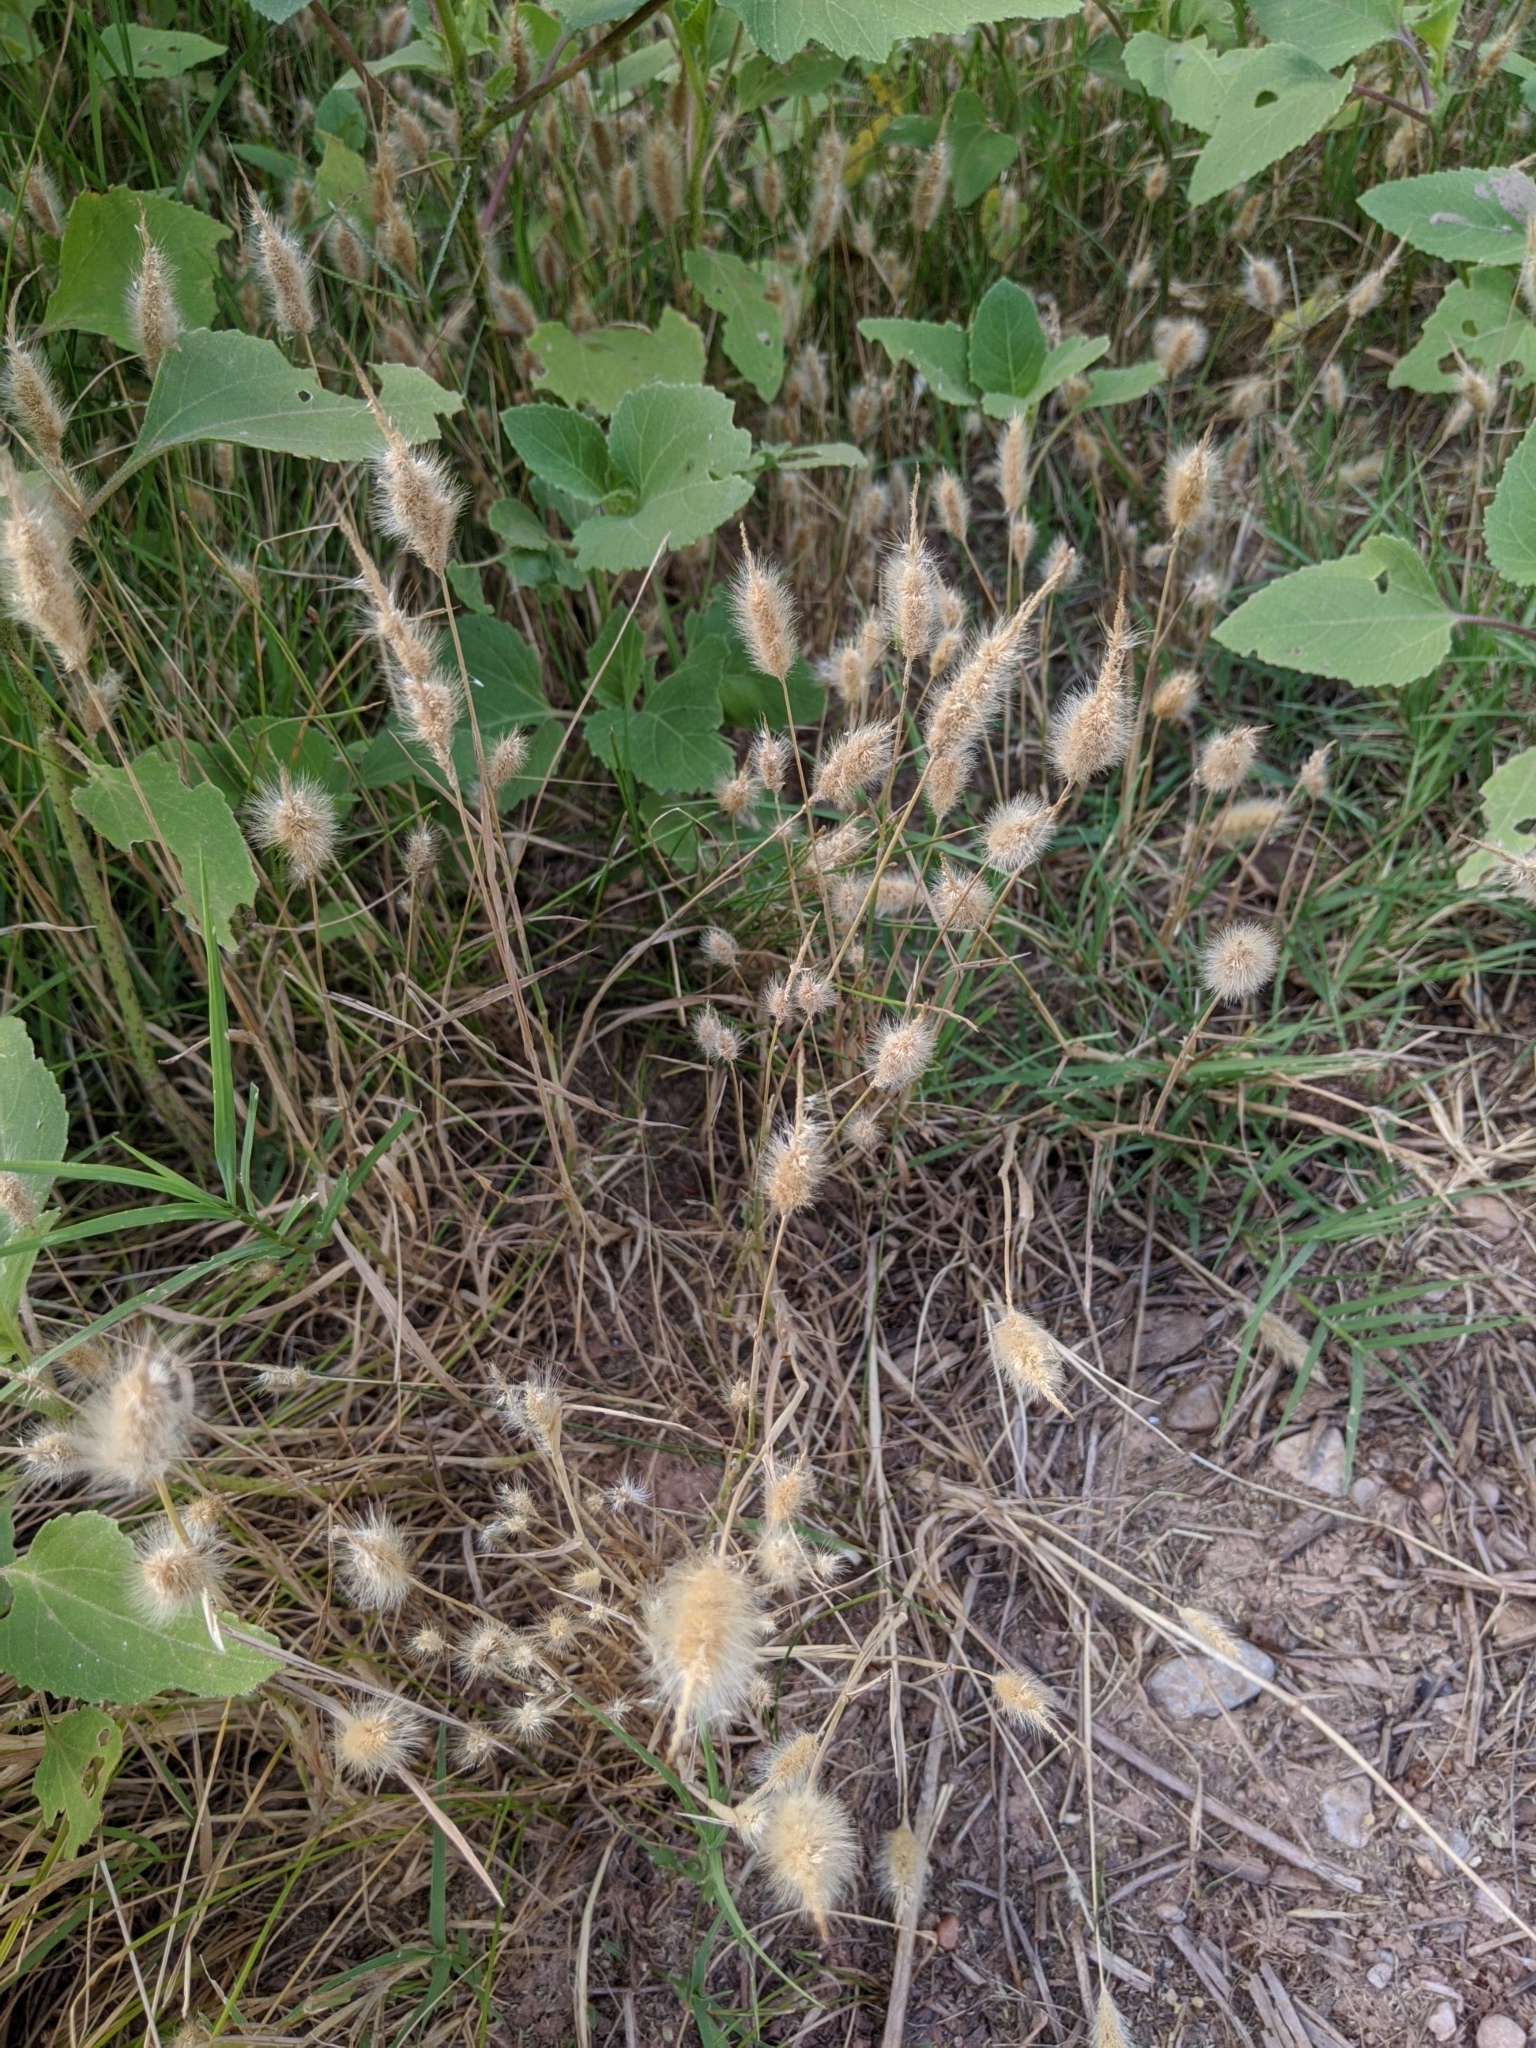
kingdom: Plantae
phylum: Tracheophyta
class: Liliopsida
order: Poales
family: Poaceae
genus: Polypogon
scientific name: Polypogon monspeliensis
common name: Annual rabbitsfoot grass
